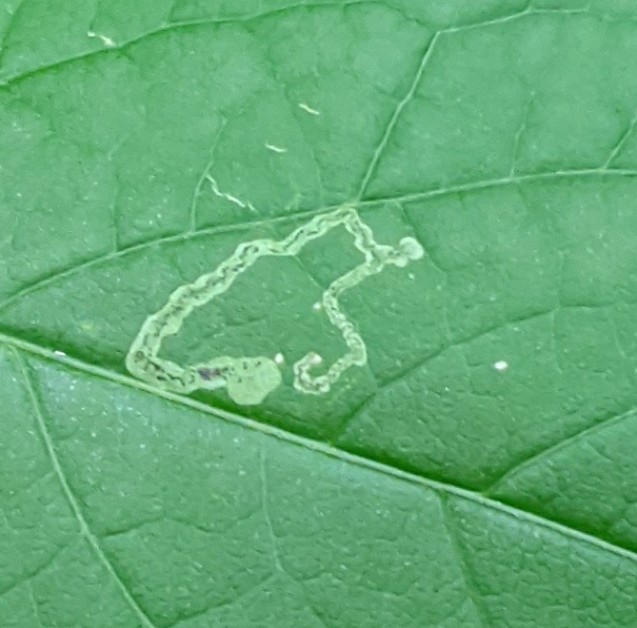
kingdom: Animalia
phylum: Arthropoda
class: Insecta
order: Diptera
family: Agromyzidae
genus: Phytomyza
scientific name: Phytomyza aralivora
